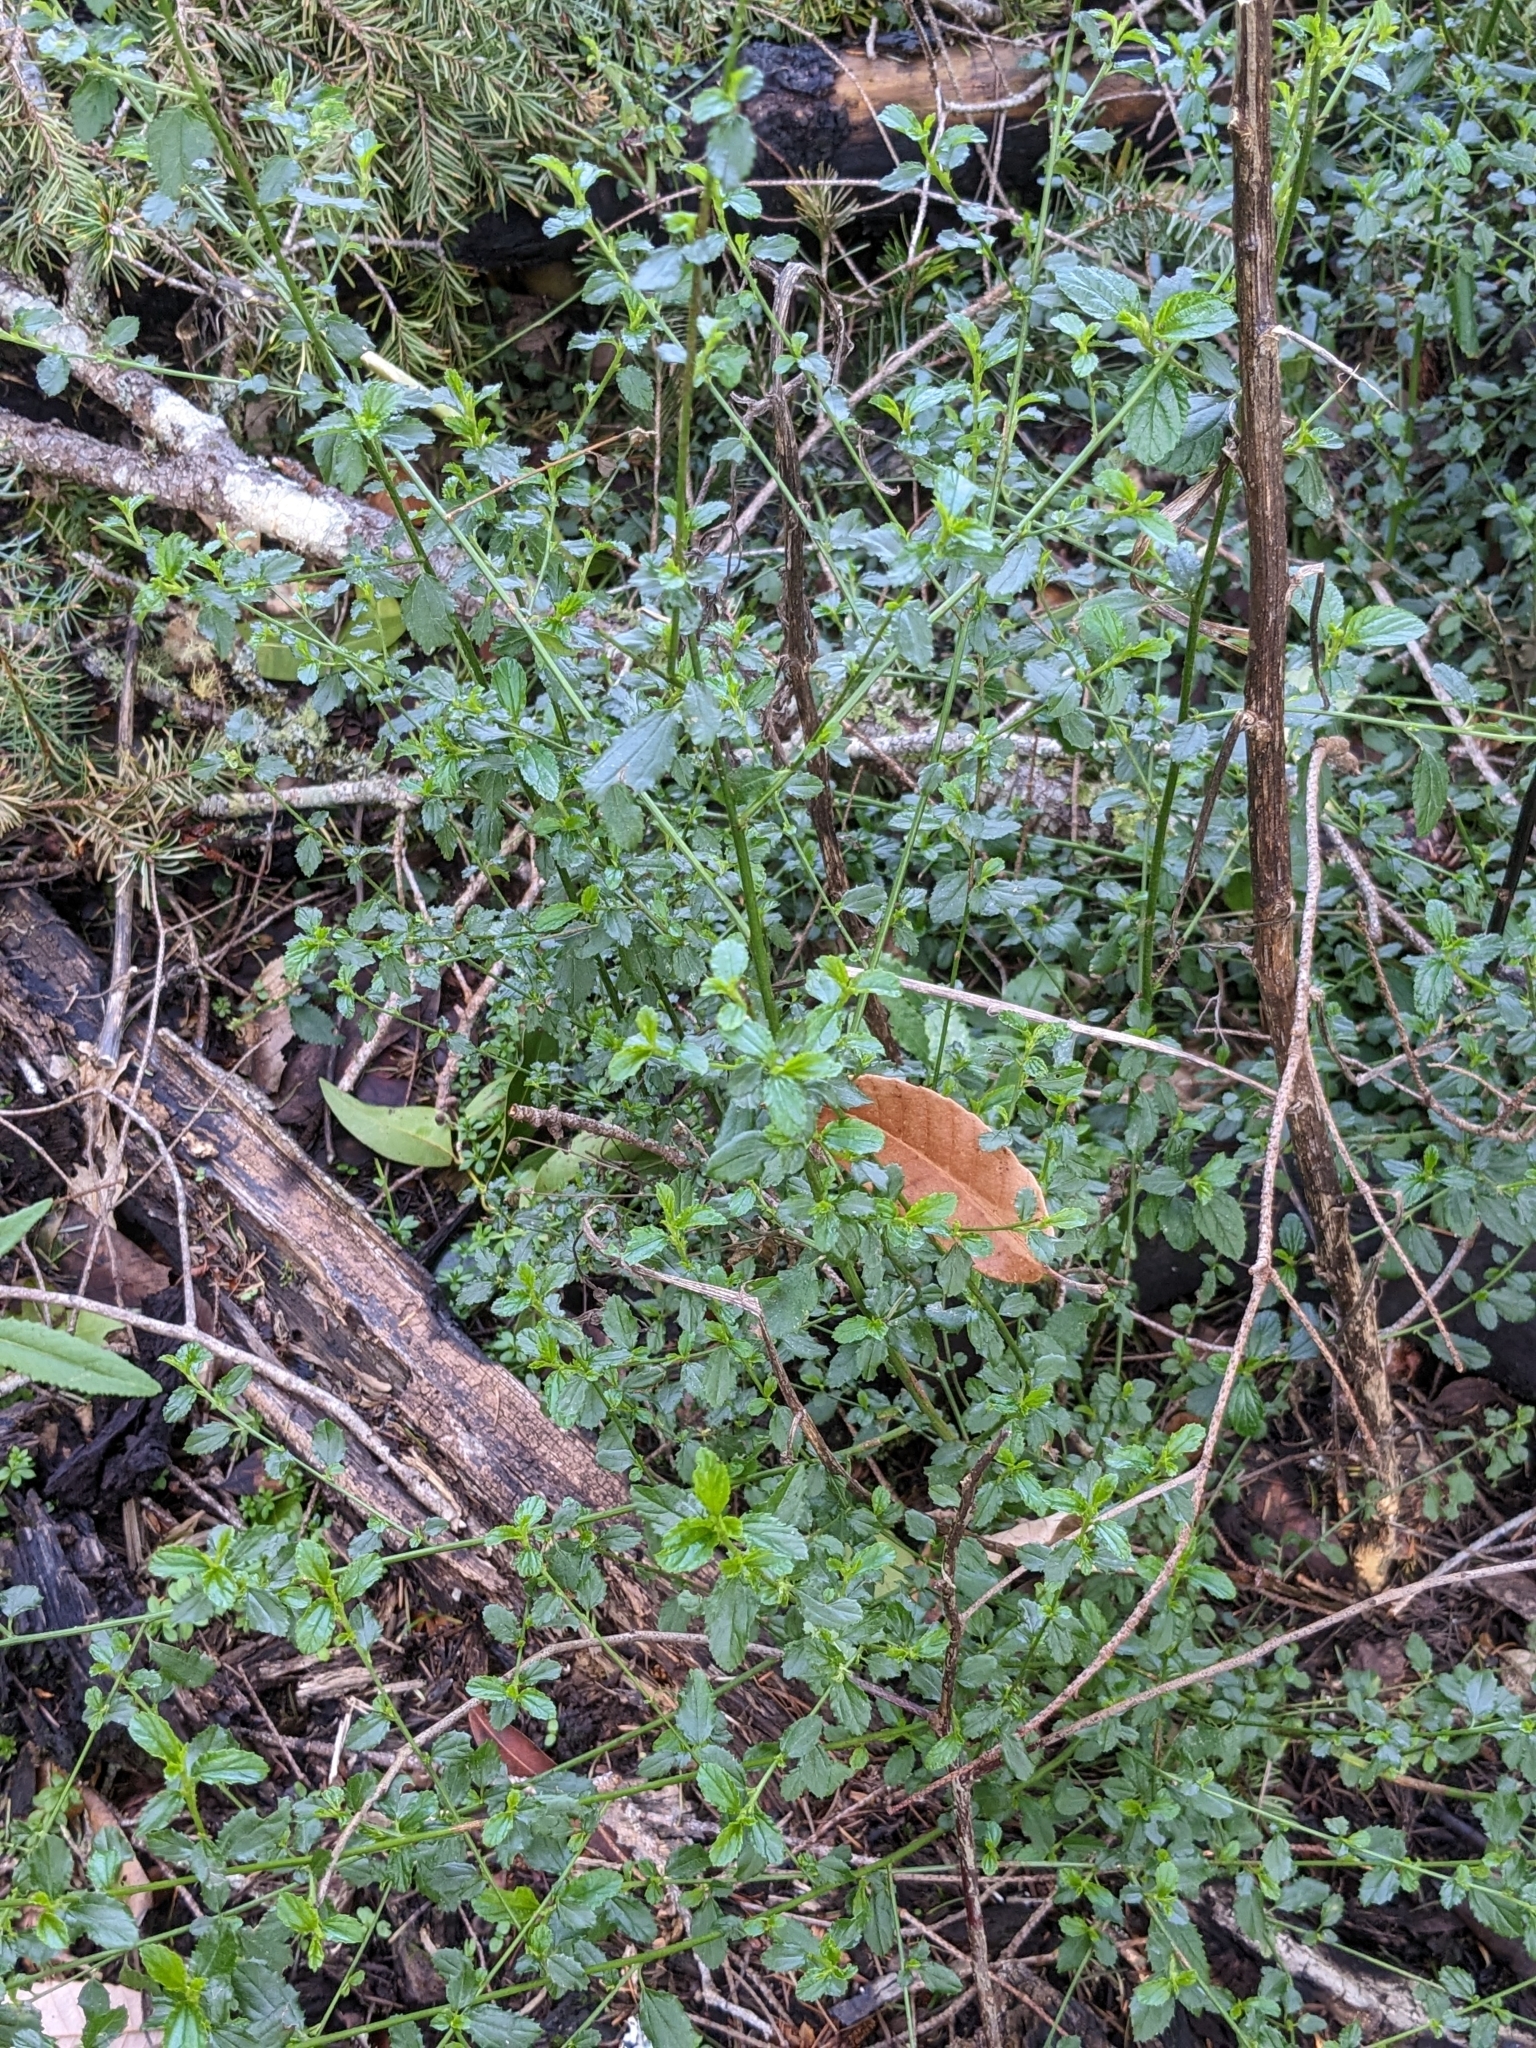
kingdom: Plantae
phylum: Tracheophyta
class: Magnoliopsida
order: Rosales
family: Rhamnaceae
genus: Ceanothus
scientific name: Ceanothus thyrsiflorus
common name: California-lilac
